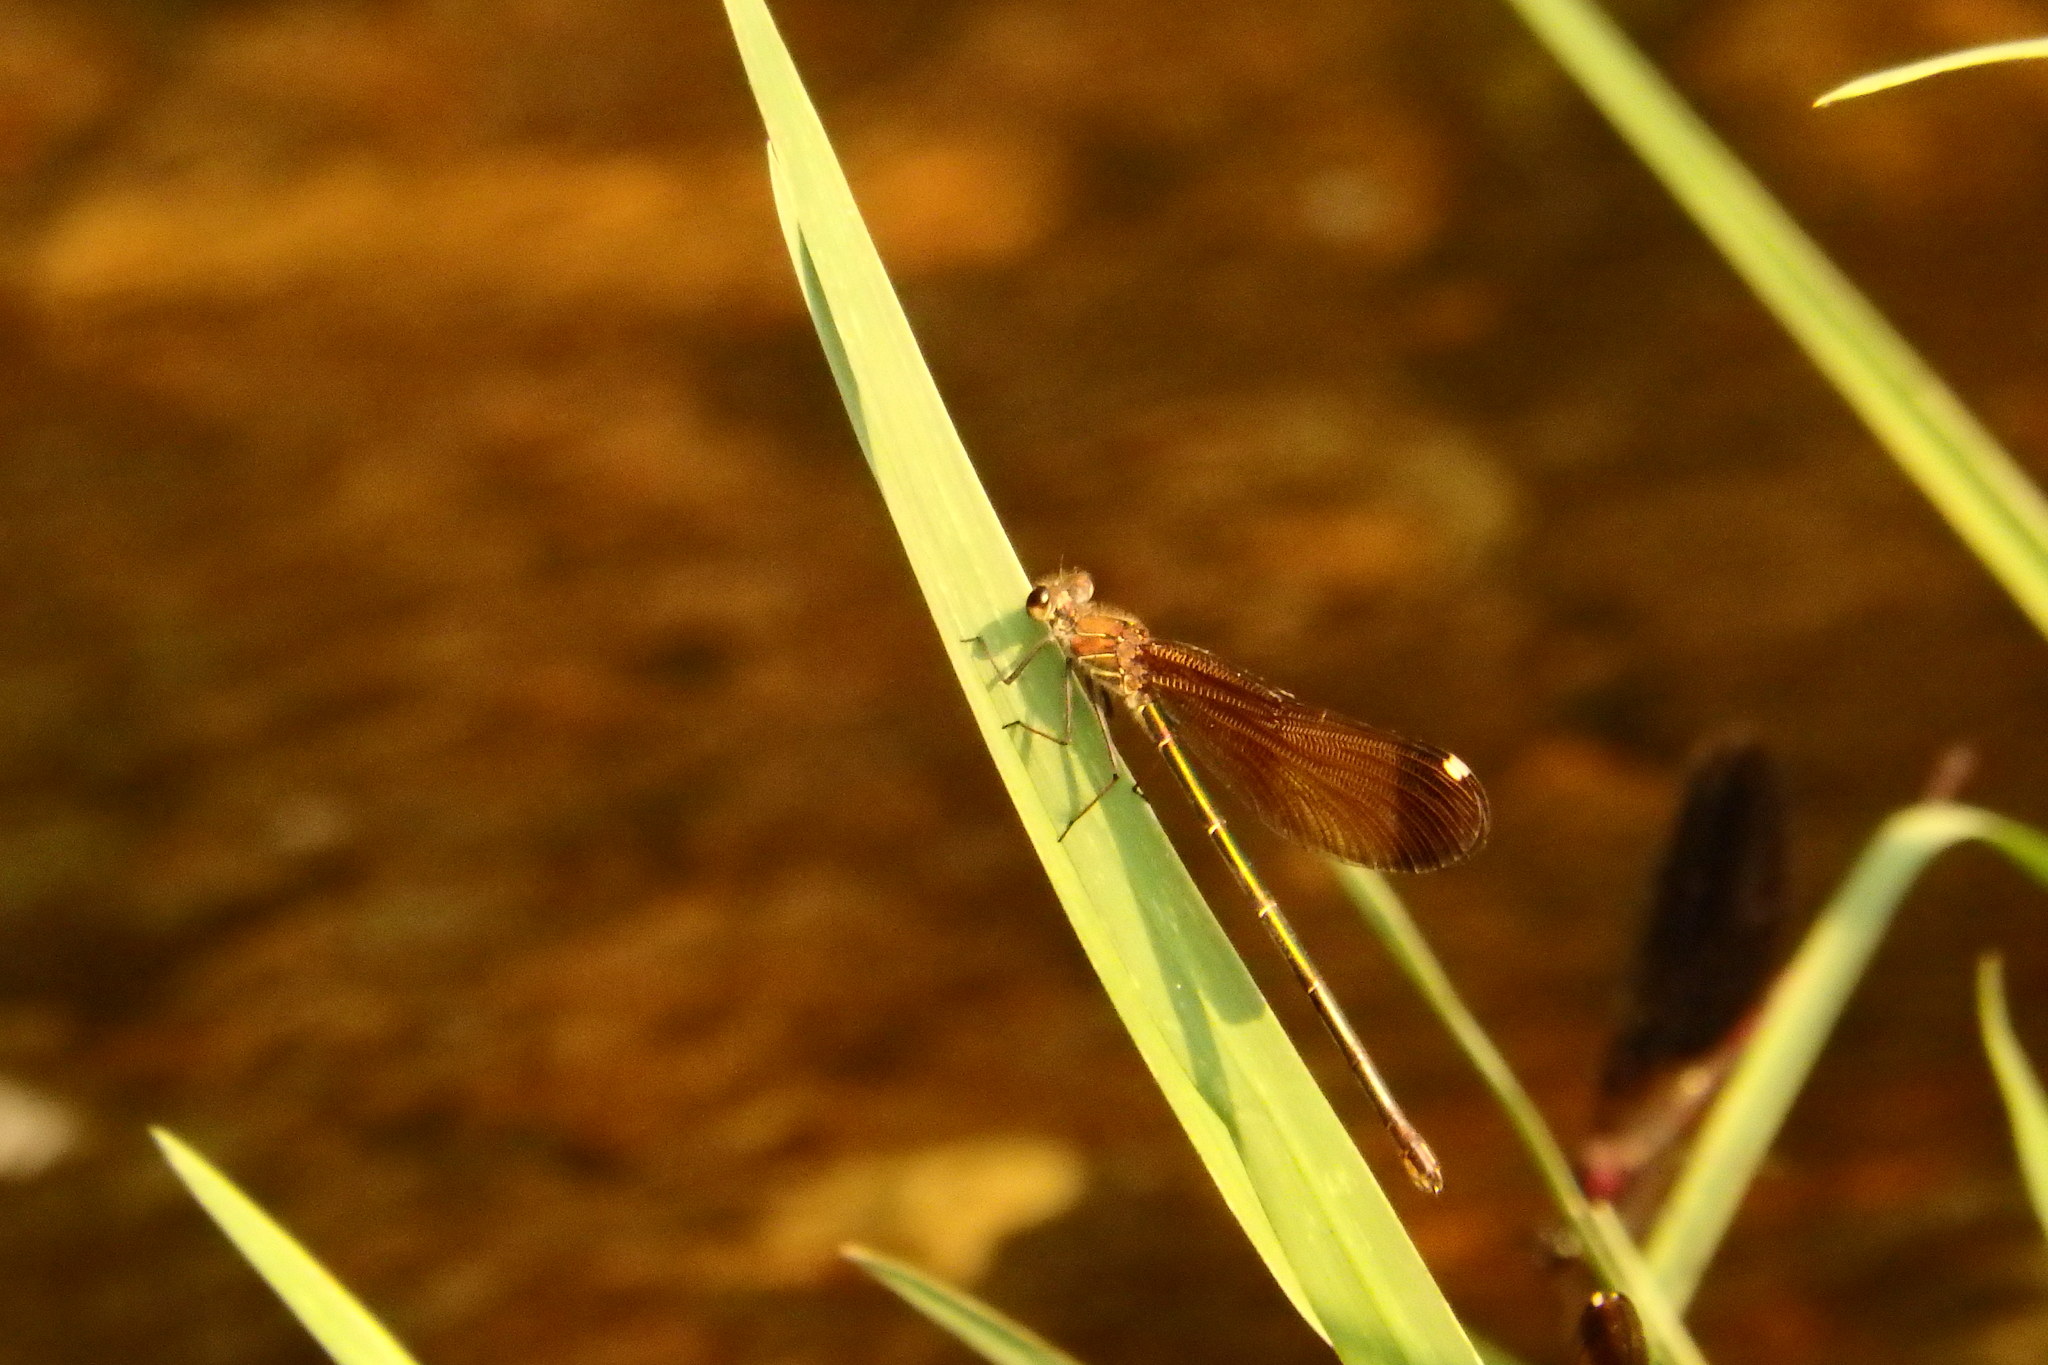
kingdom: Animalia
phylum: Arthropoda
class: Insecta
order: Odonata
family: Calopterygidae
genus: Calopteryx
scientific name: Calopteryx haemorrhoidalis
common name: Copper demoiselle
